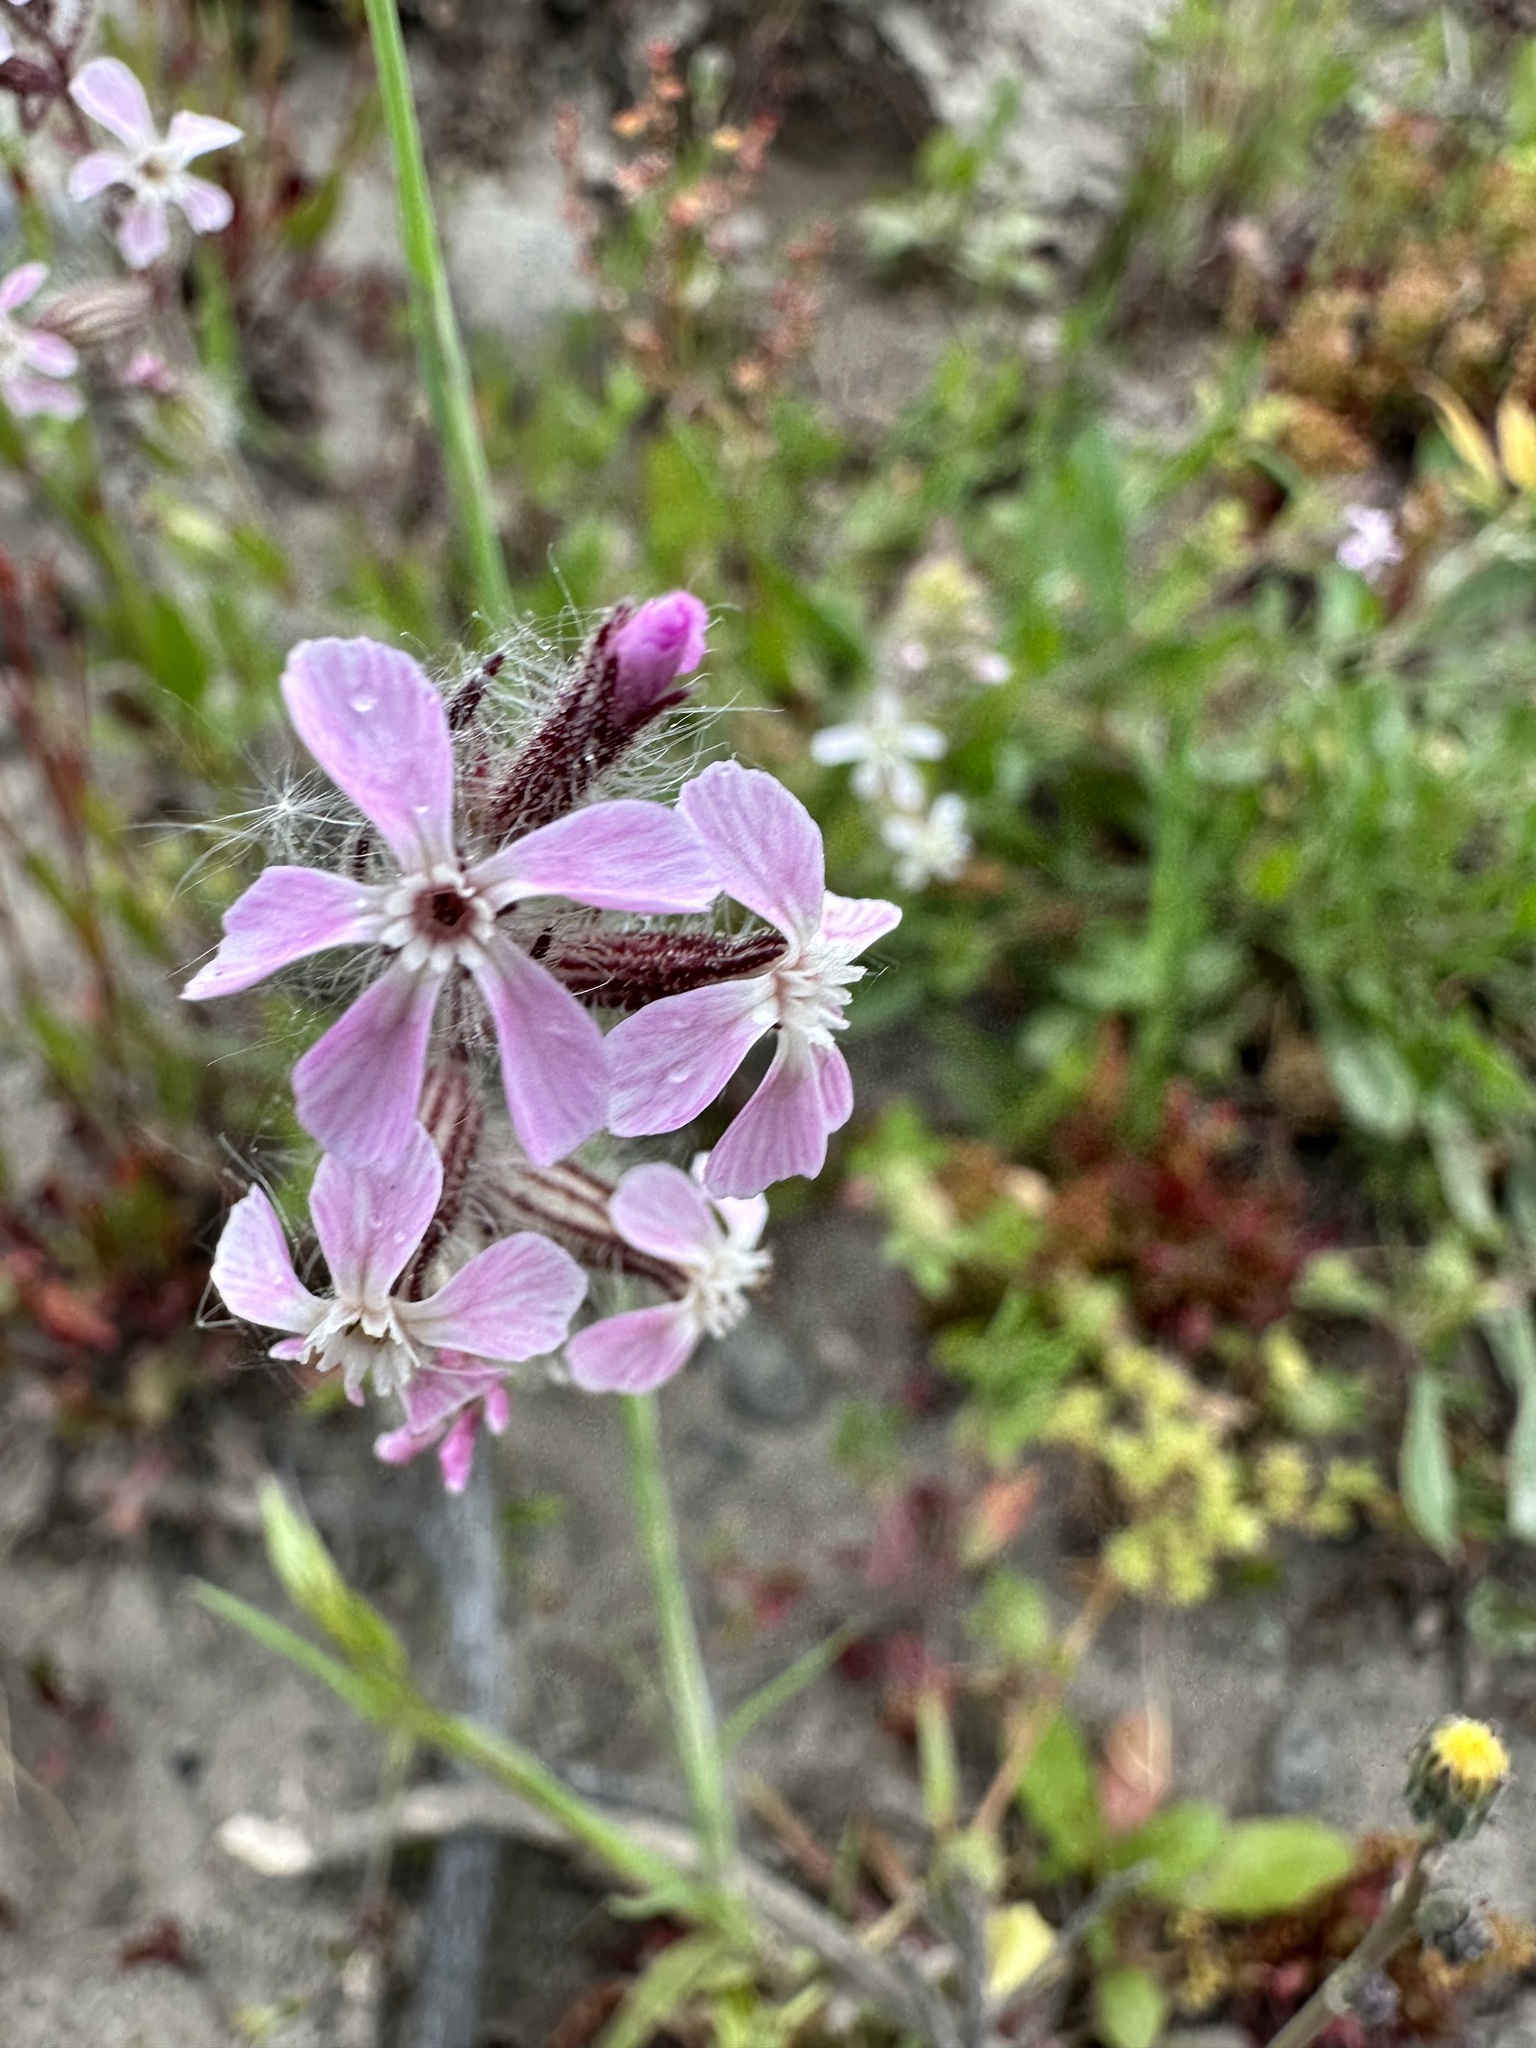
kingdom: Plantae
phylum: Tracheophyta
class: Magnoliopsida
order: Caryophyllales
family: Caryophyllaceae
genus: Silene
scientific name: Silene gallica
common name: Small-flowered catchfly
